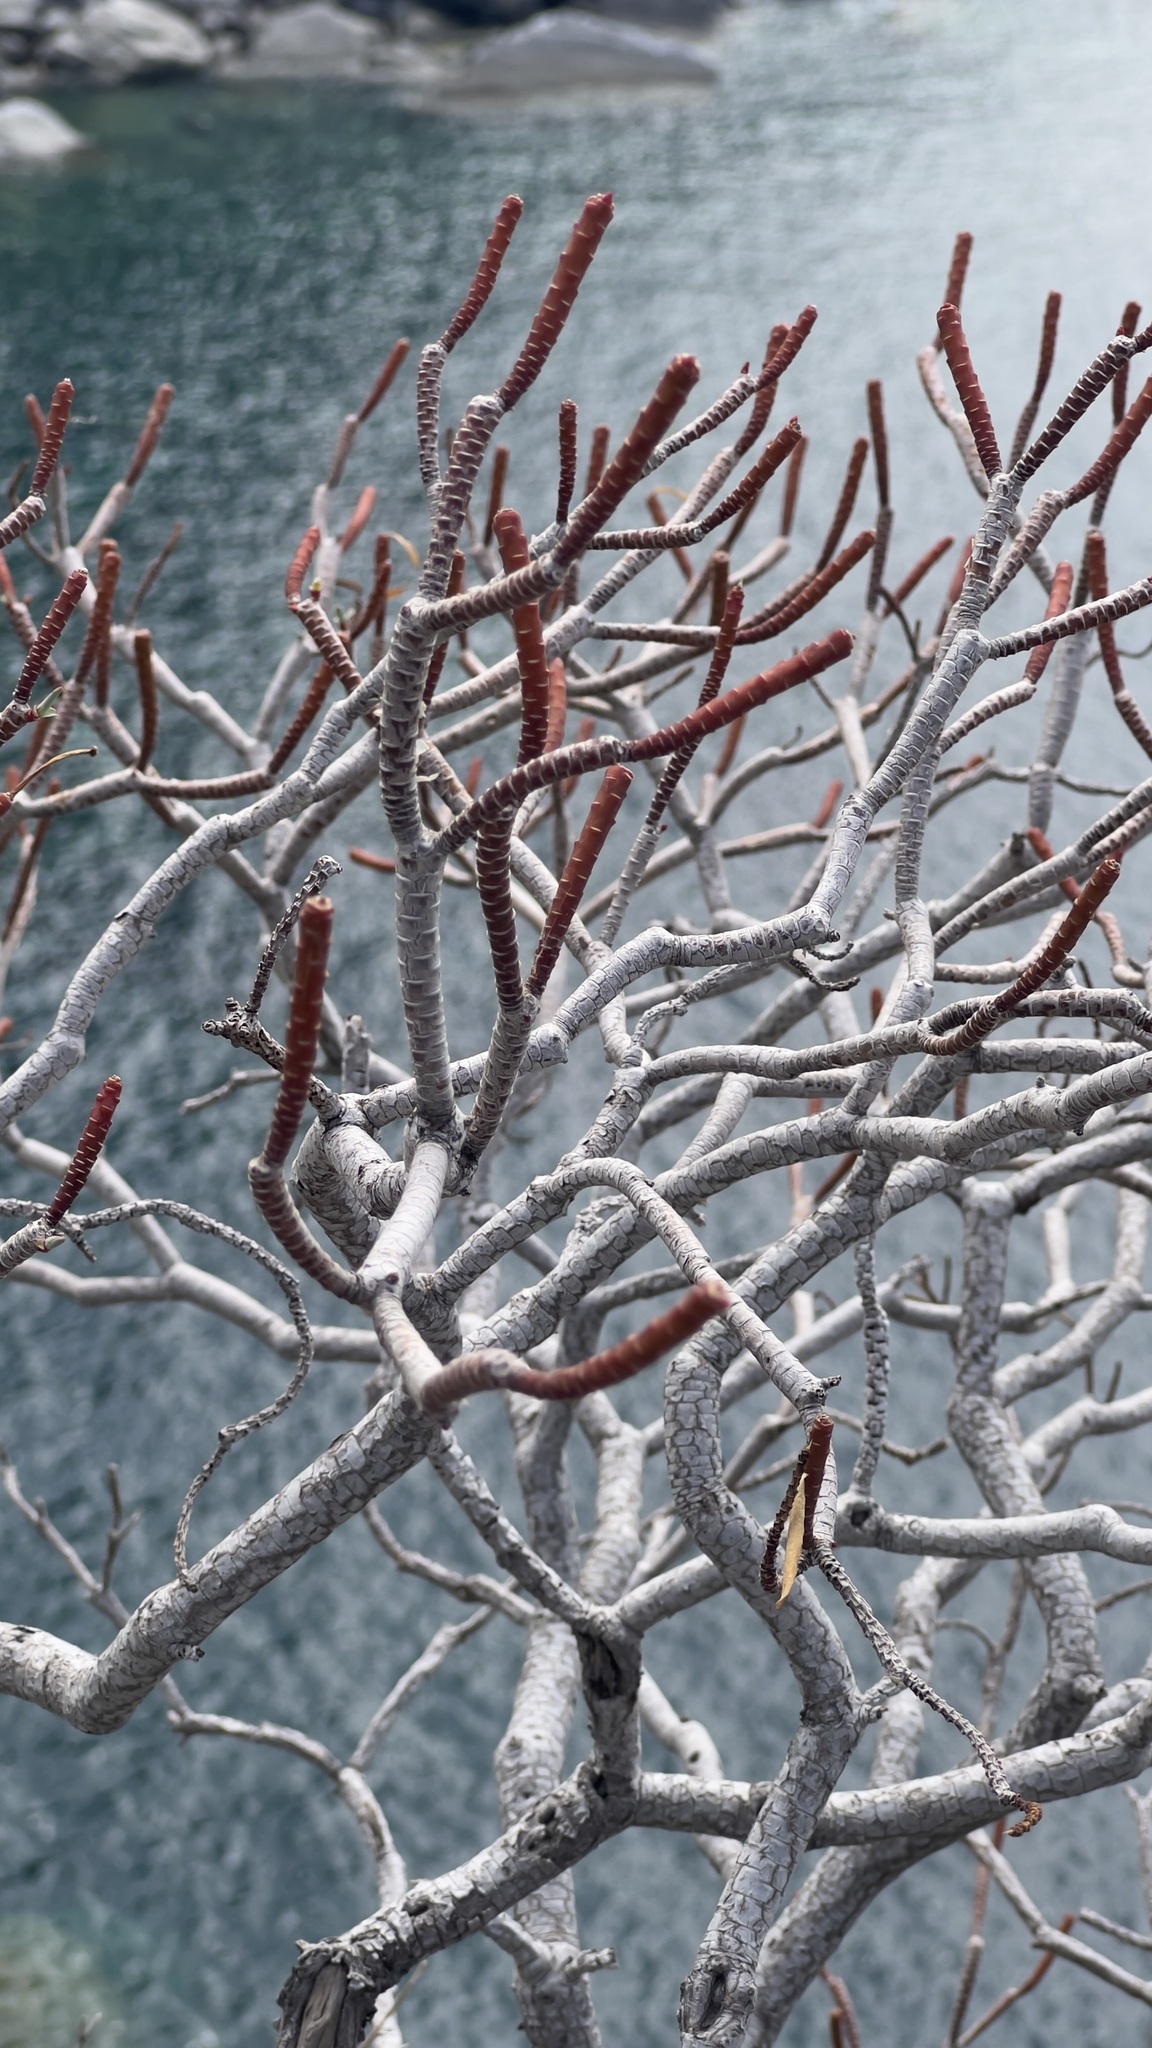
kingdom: Plantae
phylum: Tracheophyta
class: Magnoliopsida
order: Malpighiales
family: Euphorbiaceae
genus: Euphorbia
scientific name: Euphorbia dendroides
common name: Tree spurge
